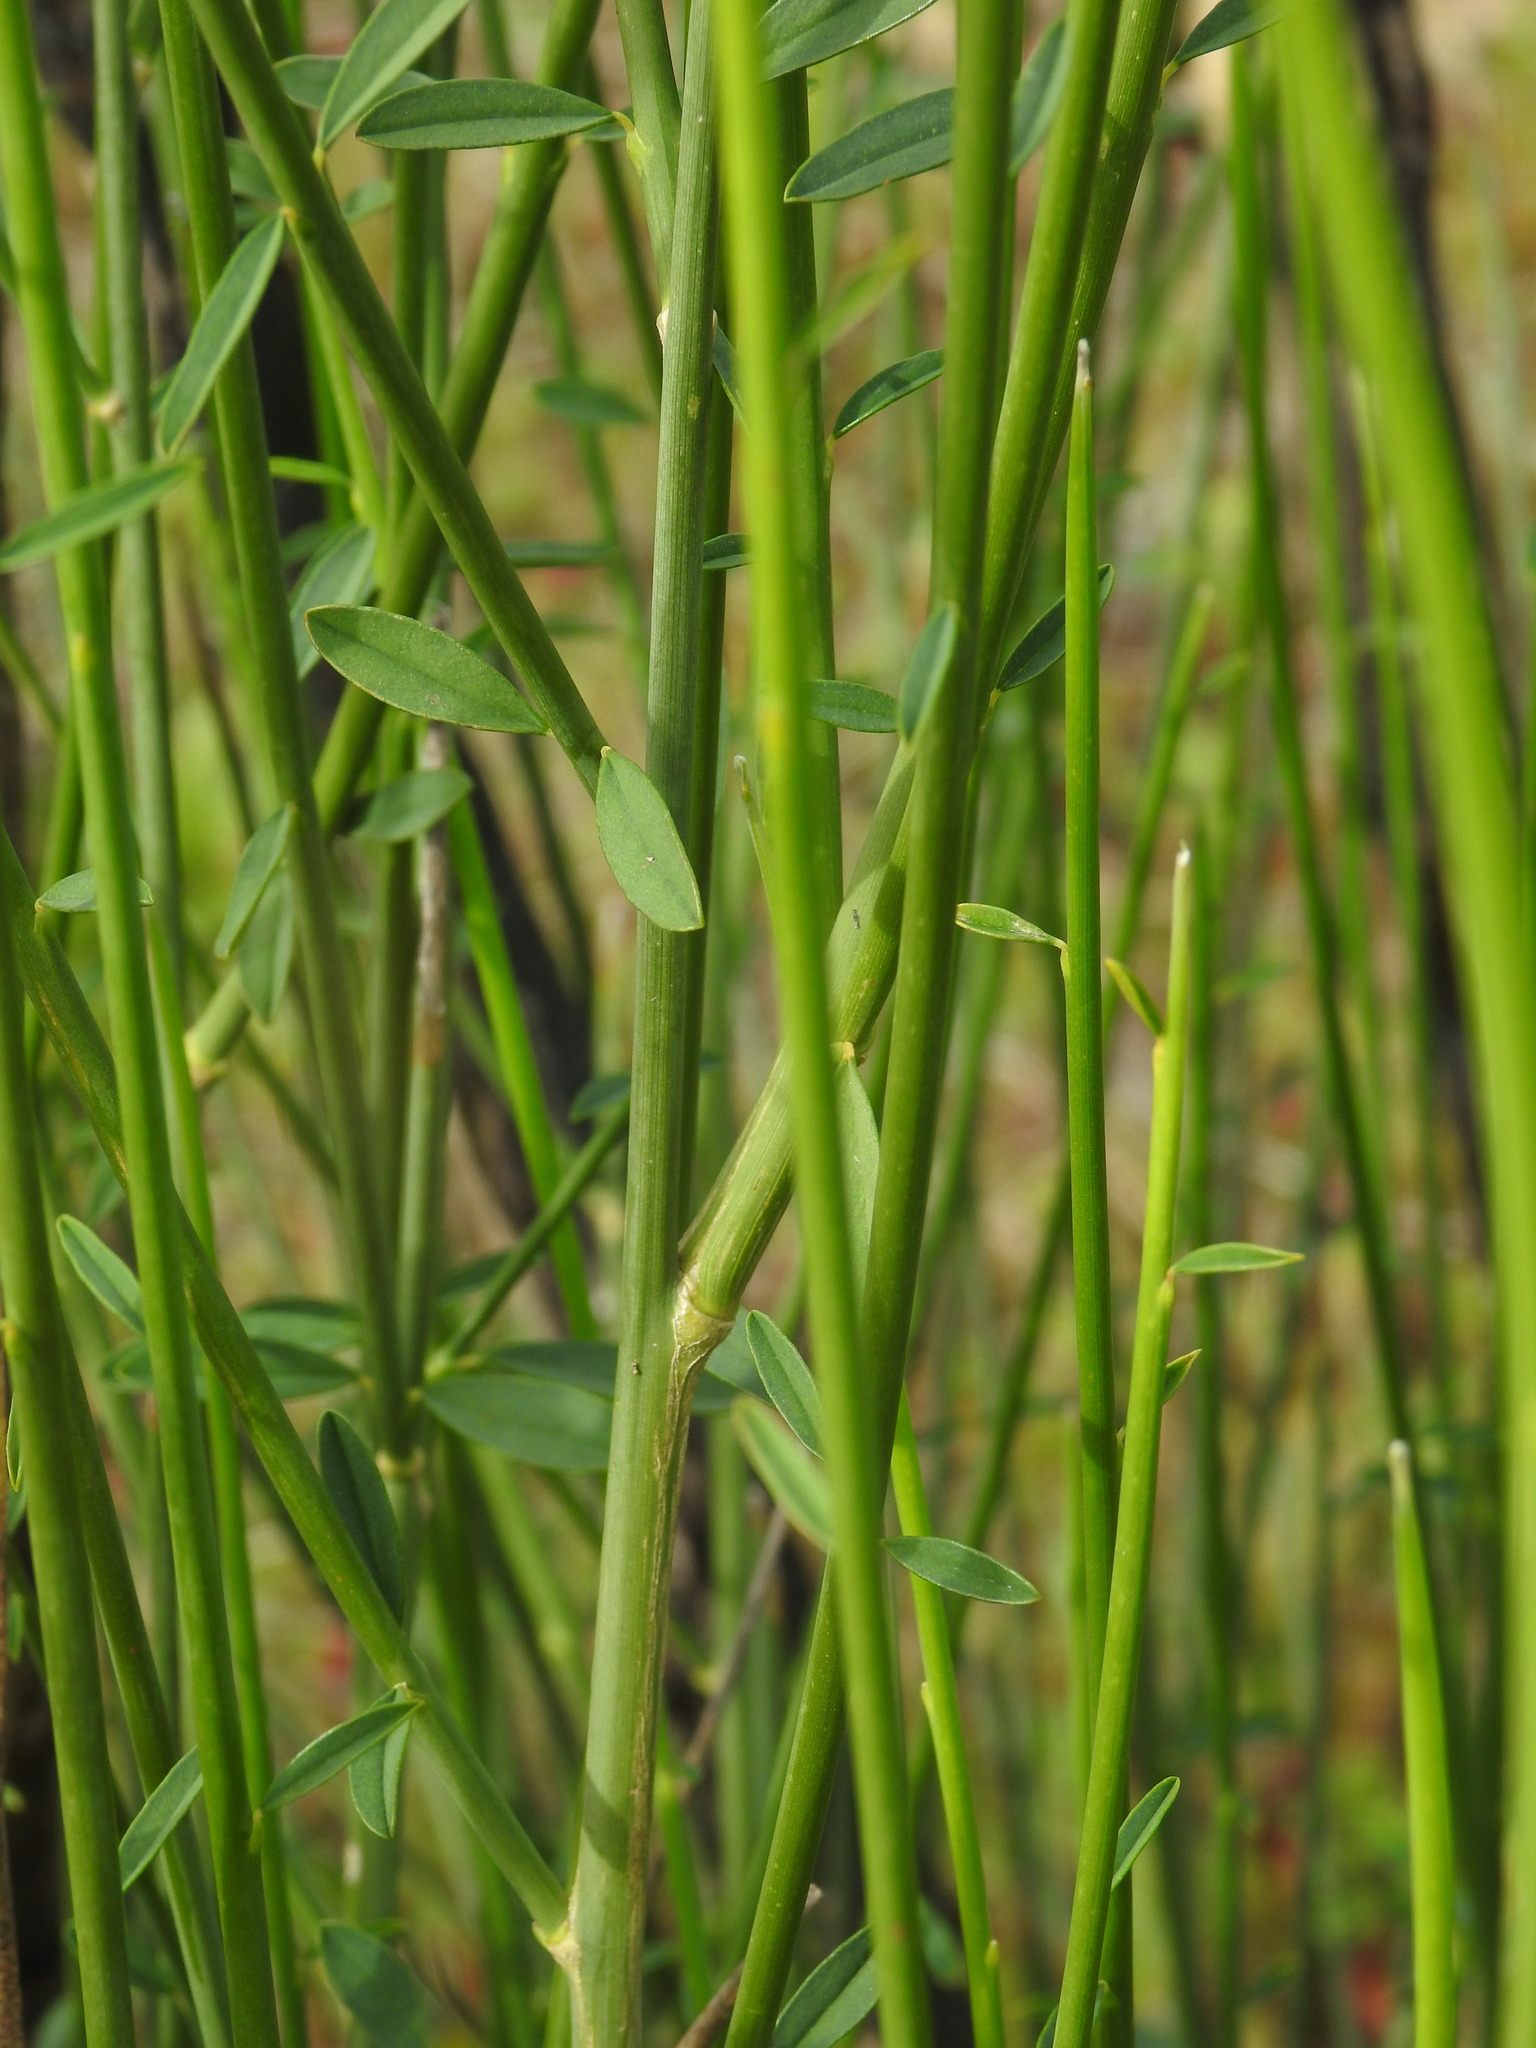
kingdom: Plantae
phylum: Tracheophyta
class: Magnoliopsida
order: Fabales
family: Fabaceae
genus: Spartium
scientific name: Spartium junceum
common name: Spanish broom
